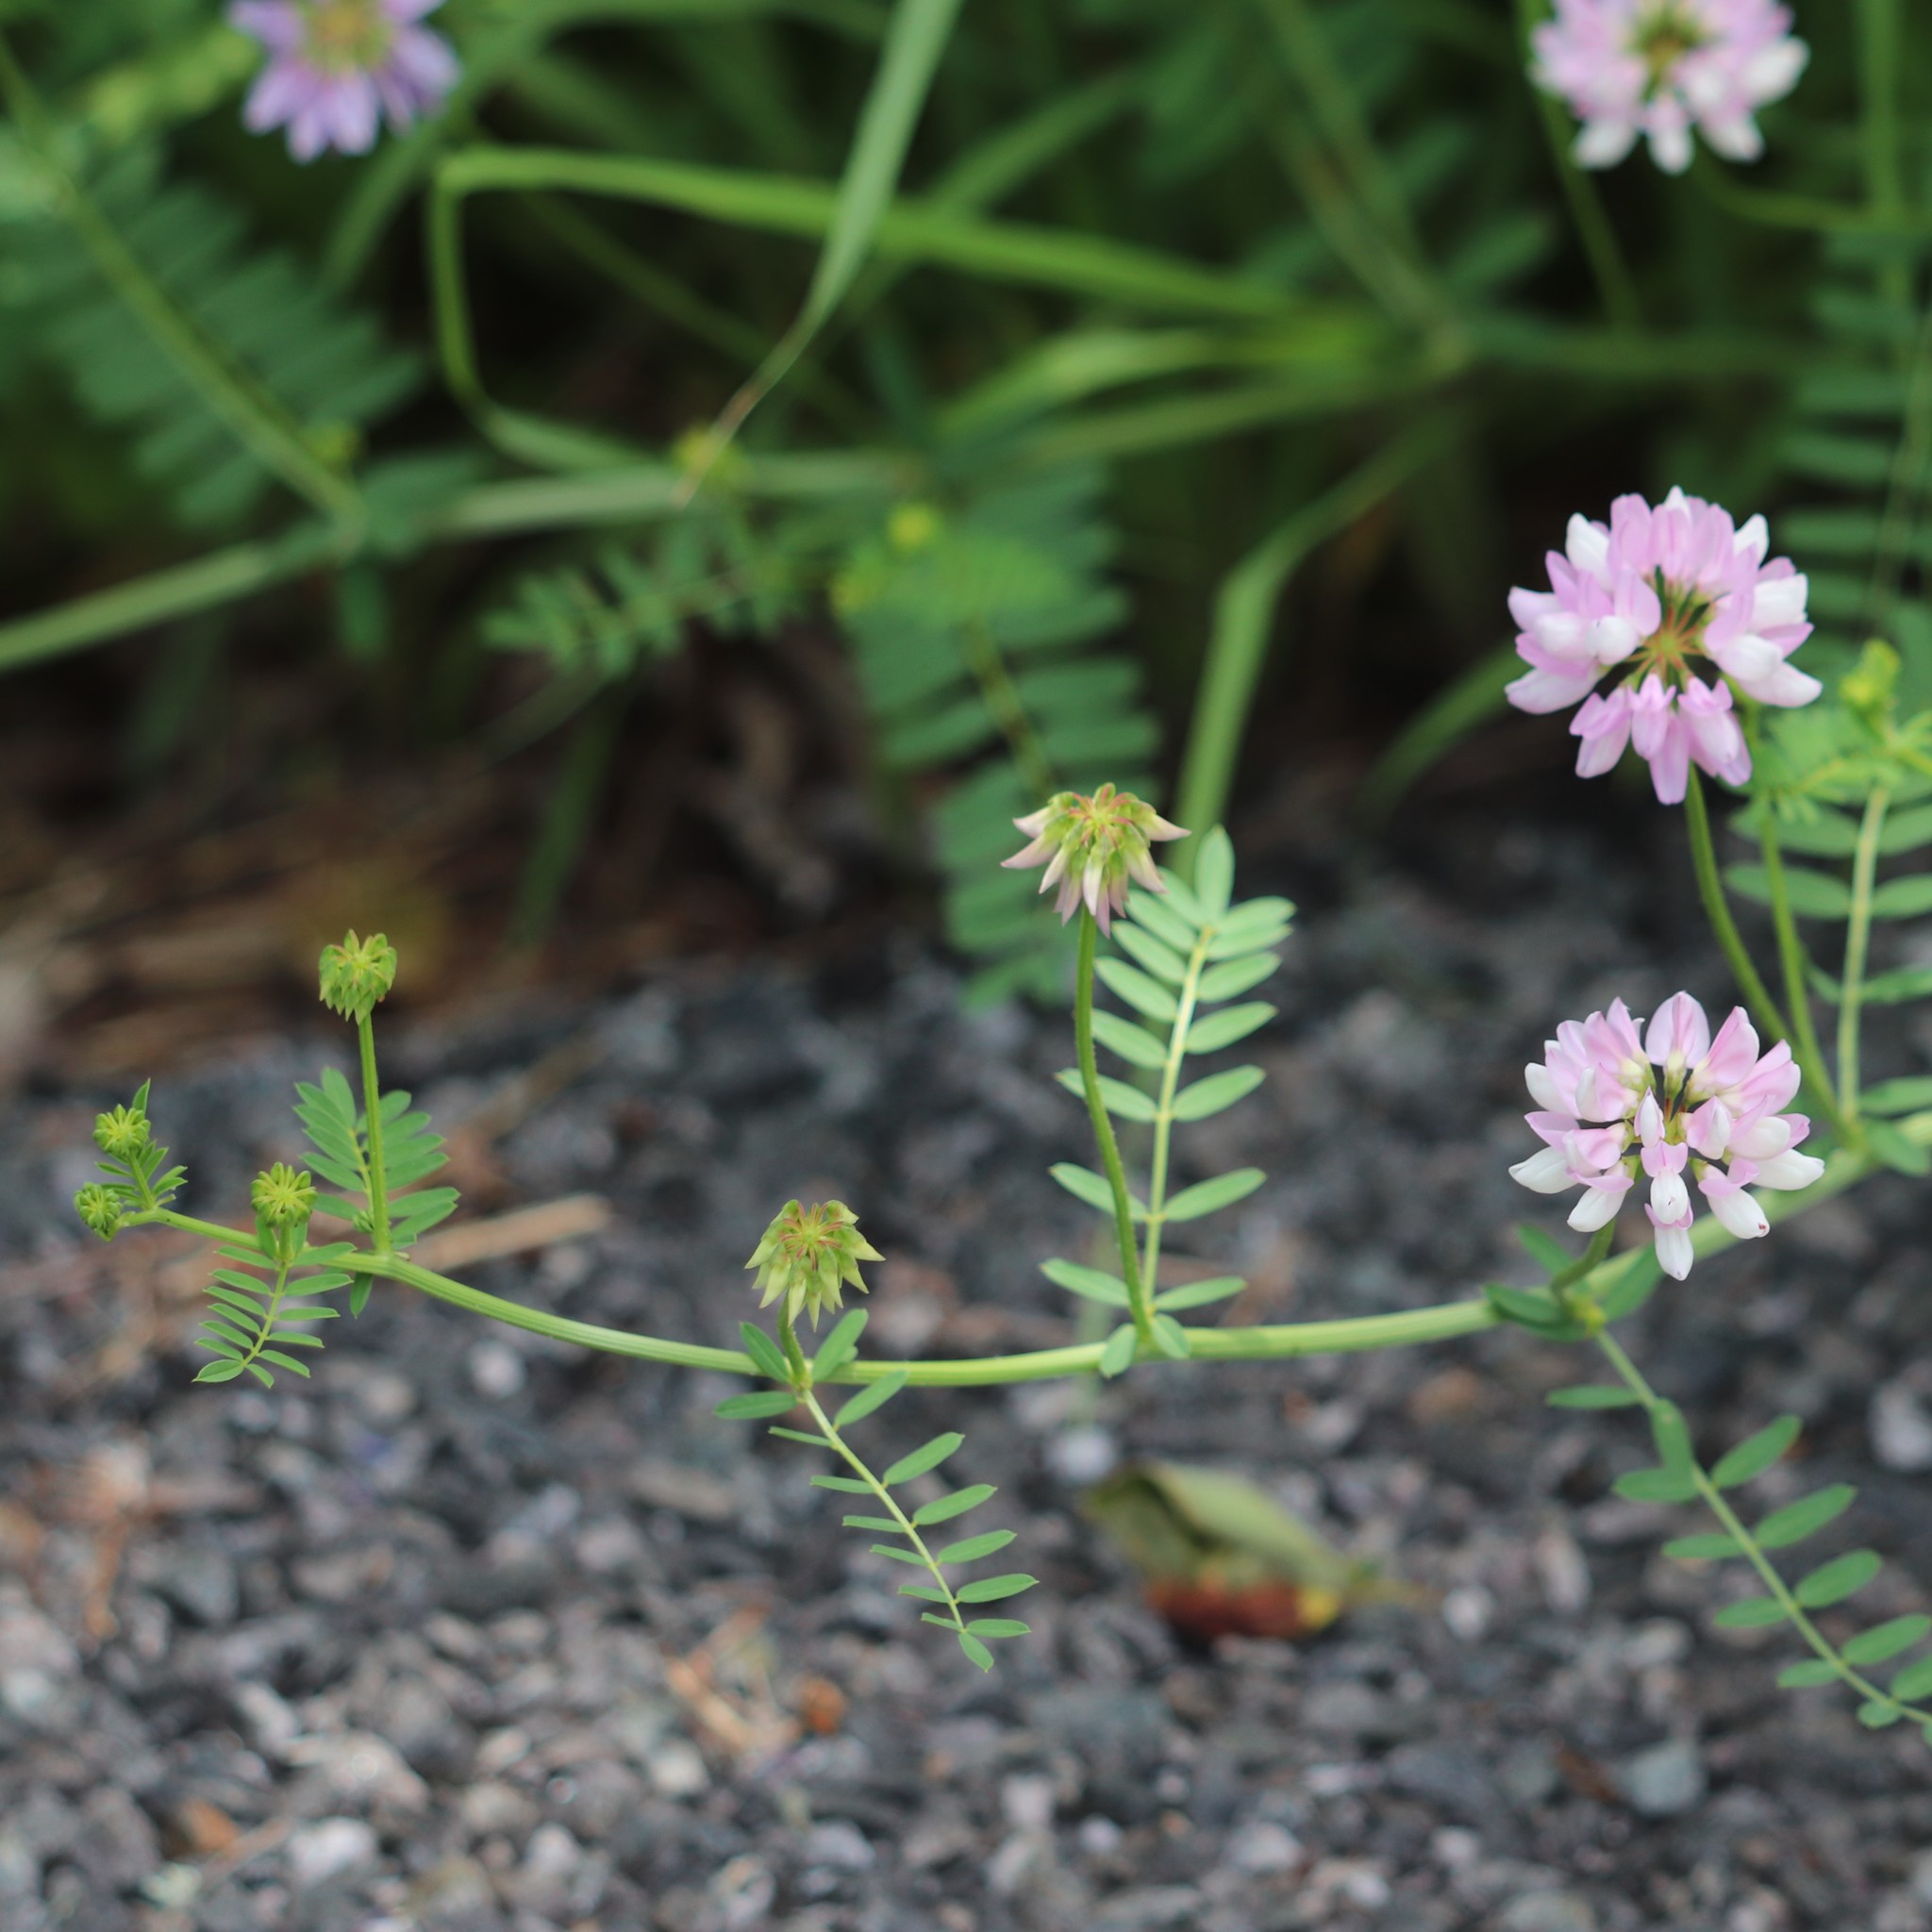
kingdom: Plantae
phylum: Tracheophyta
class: Magnoliopsida
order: Fabales
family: Fabaceae
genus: Coronilla
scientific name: Coronilla varia
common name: Crownvetch
